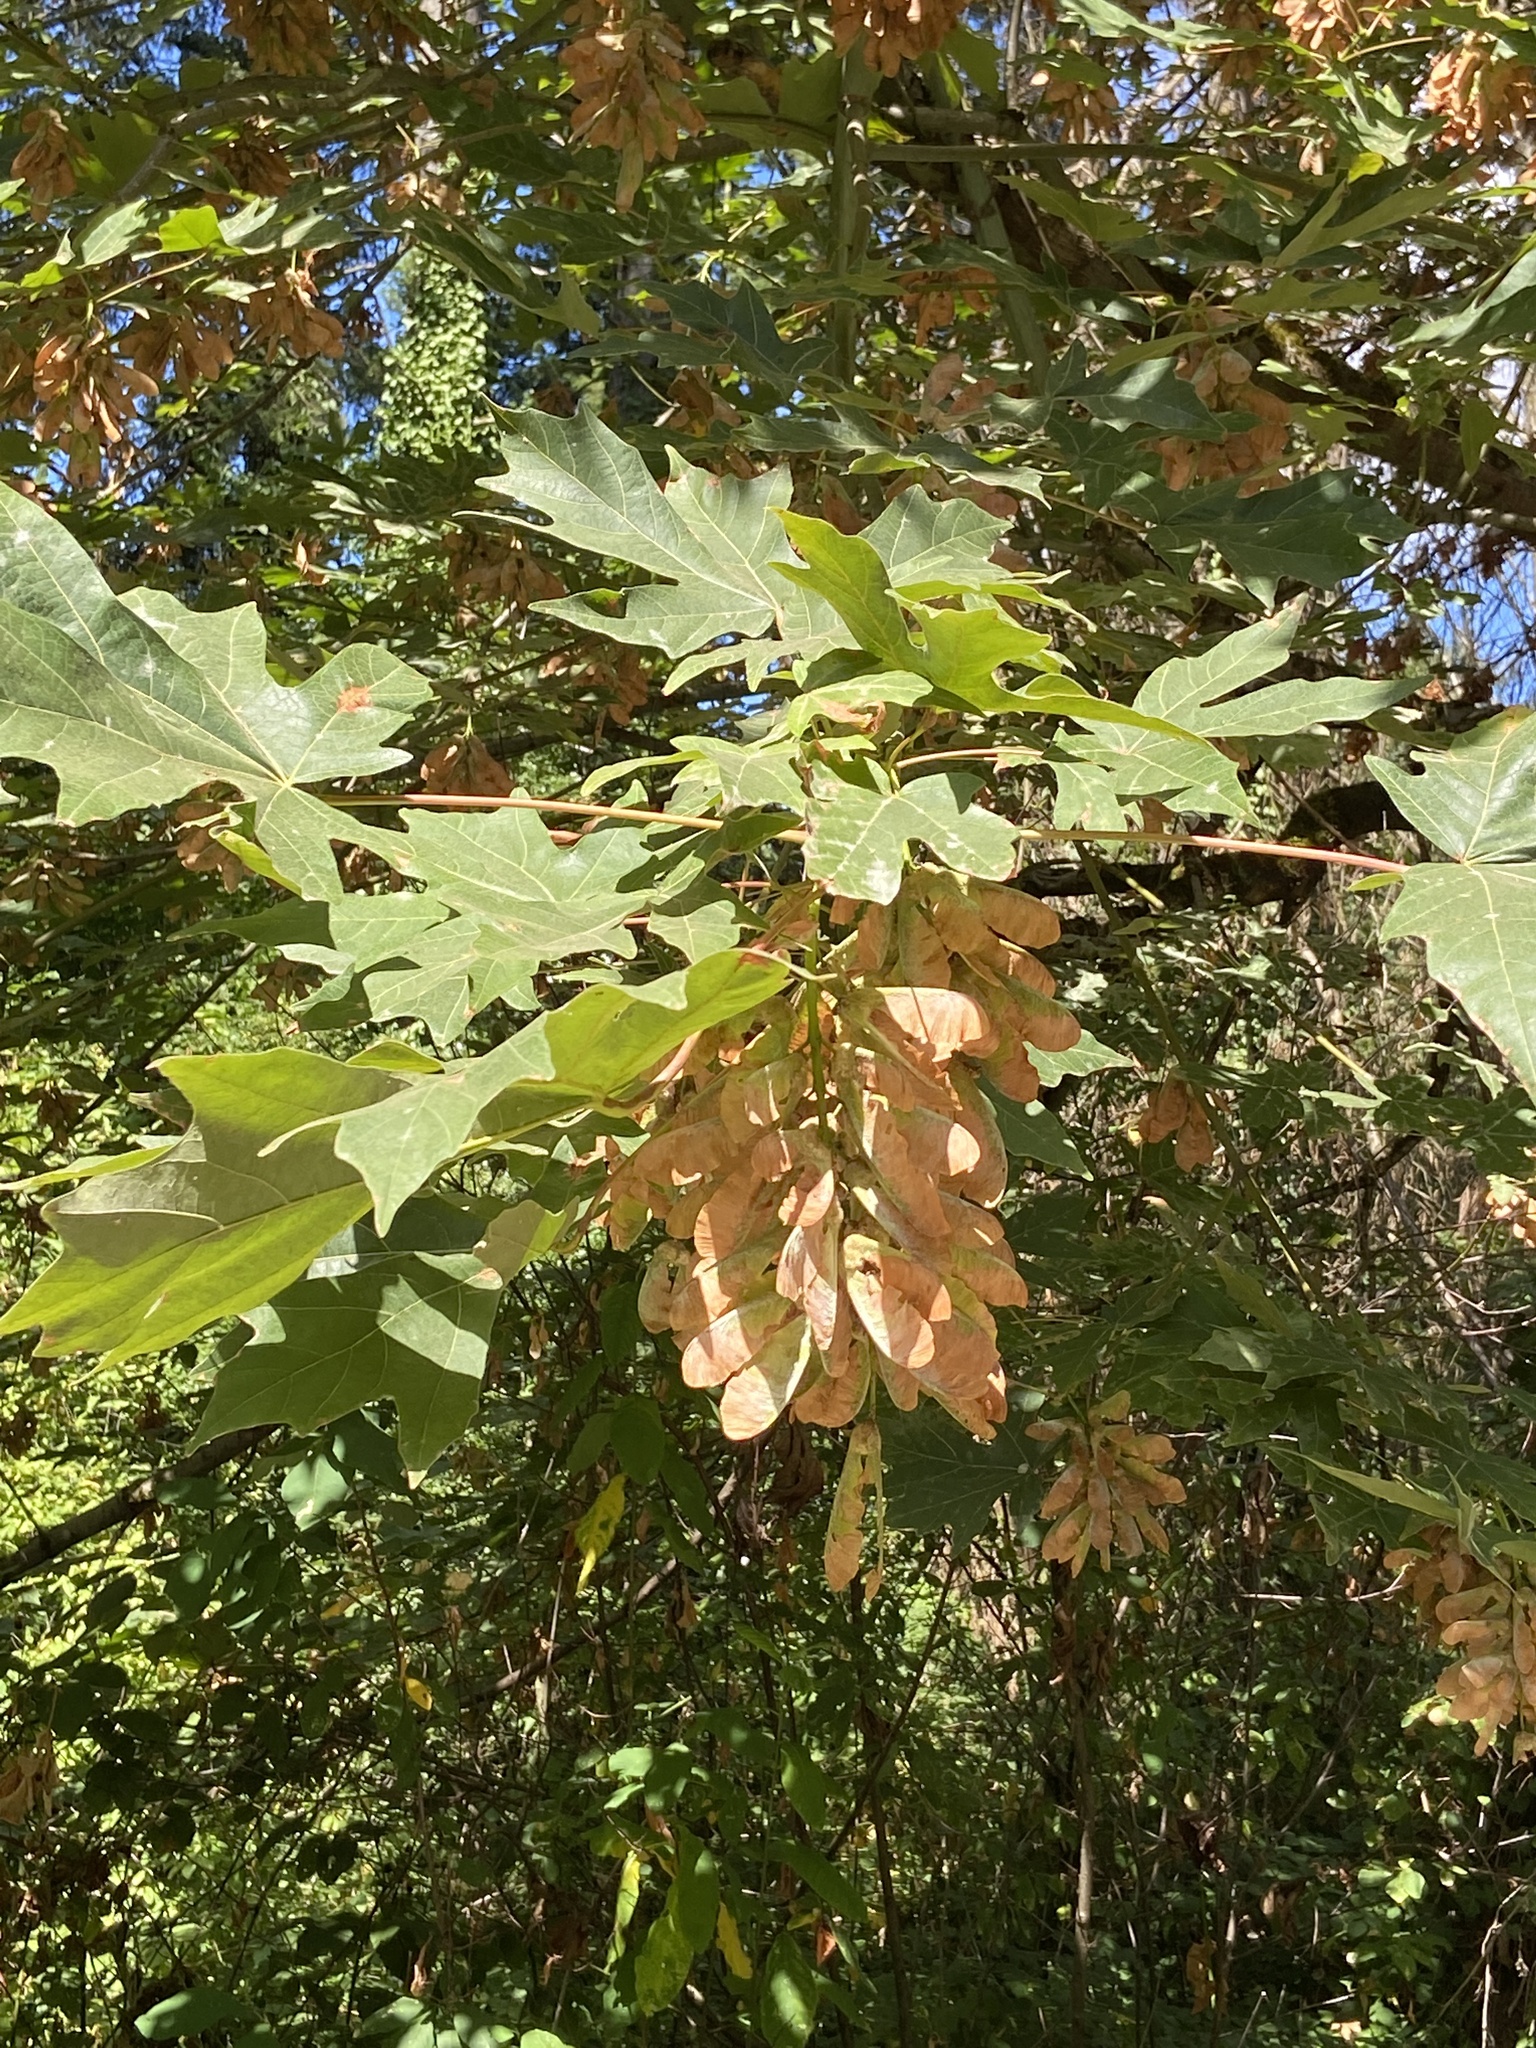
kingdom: Plantae
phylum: Tracheophyta
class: Magnoliopsida
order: Sapindales
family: Sapindaceae
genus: Acer
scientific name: Acer macrophyllum
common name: Oregon maple
